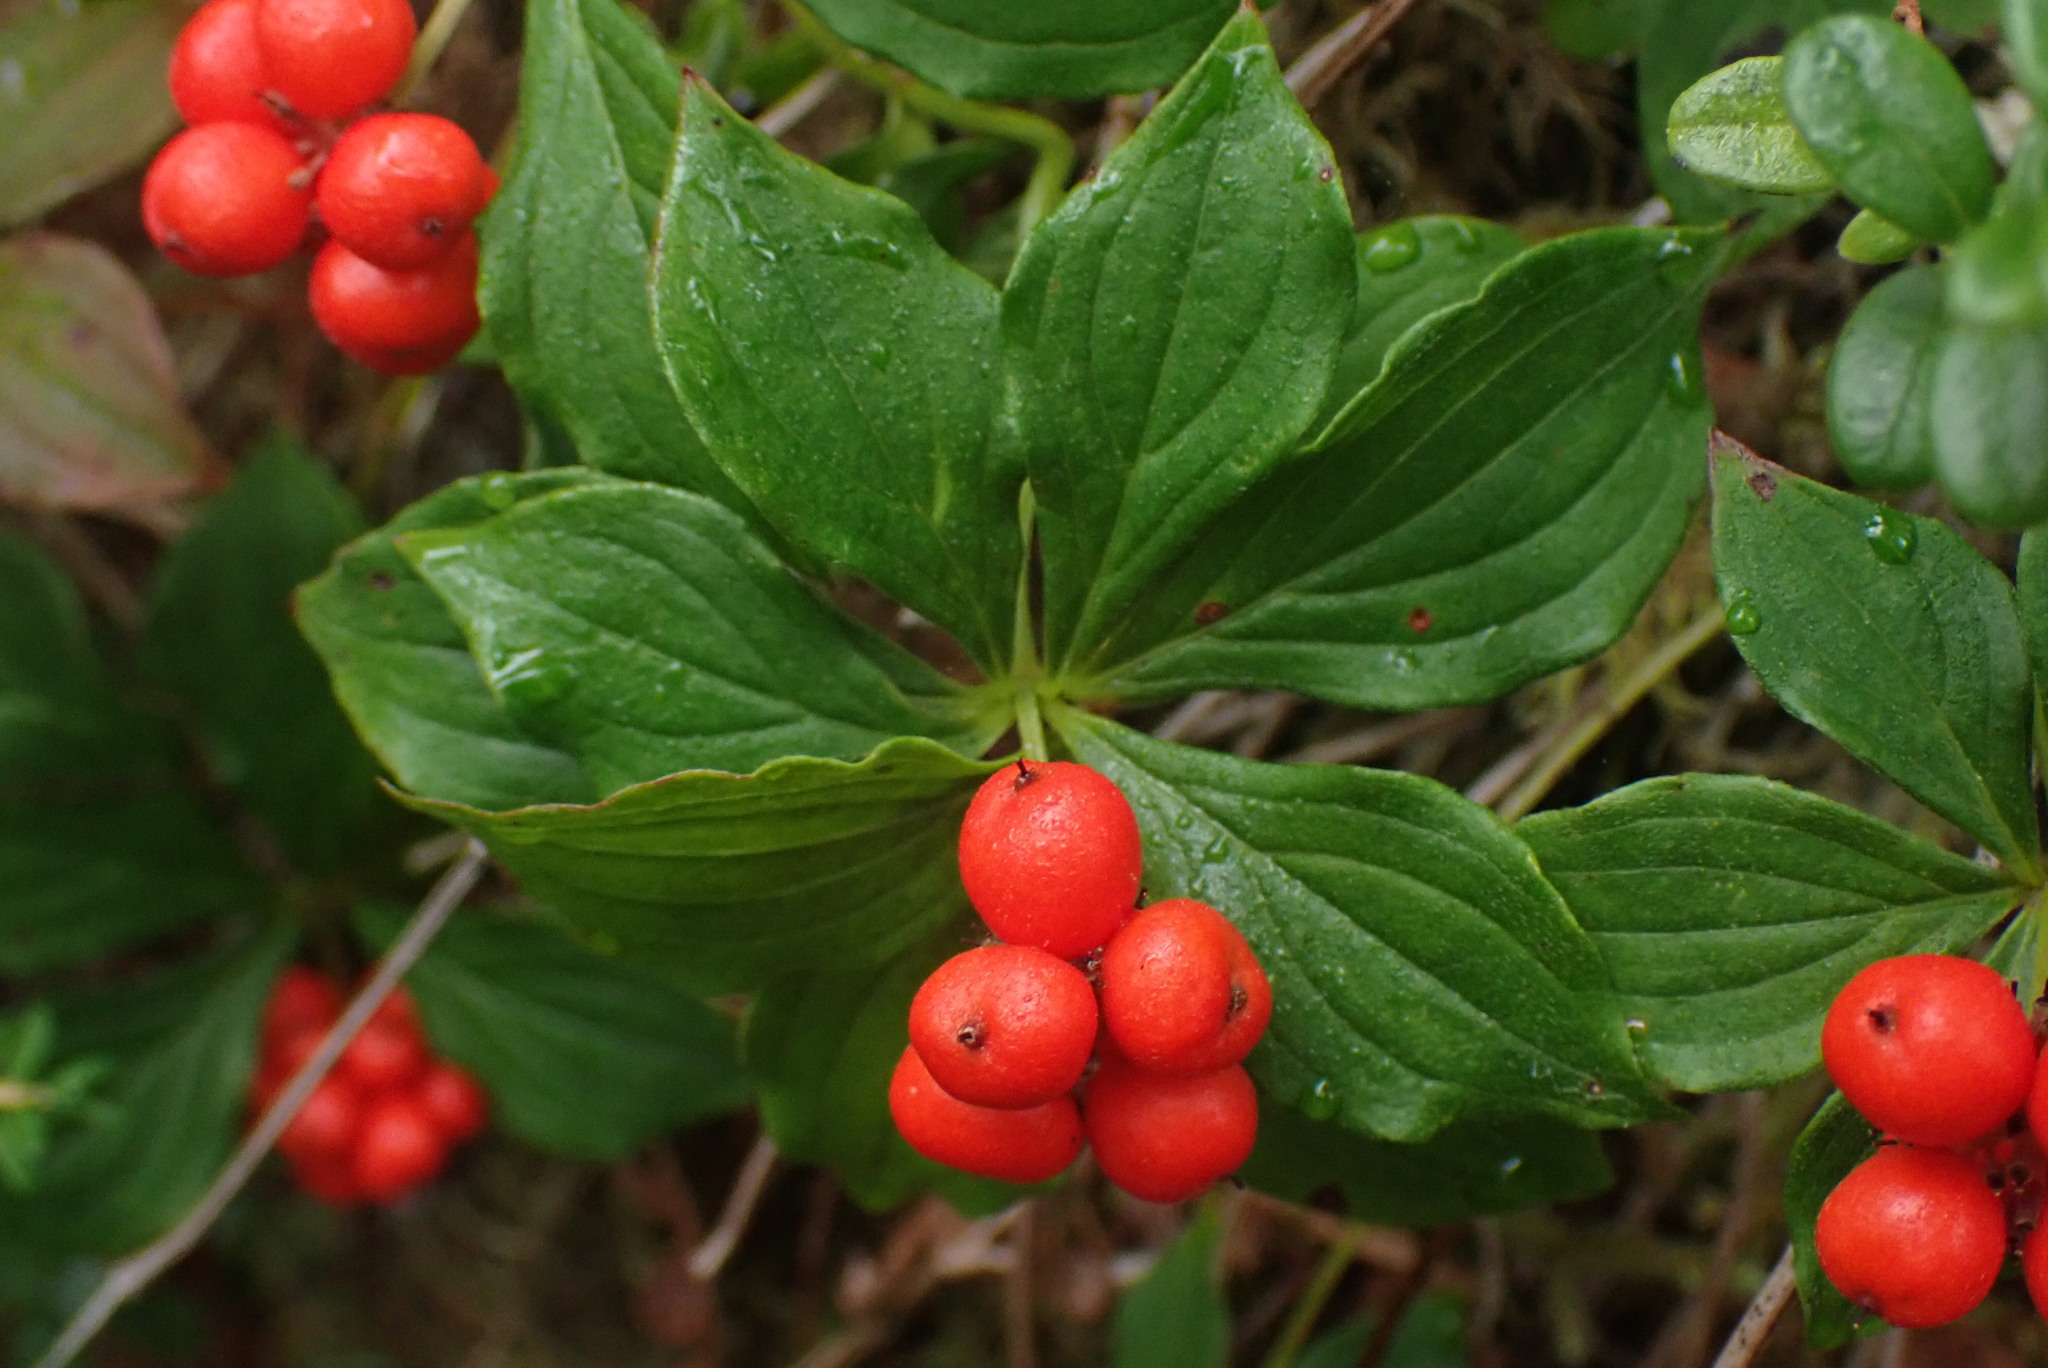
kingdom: Plantae
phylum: Tracheophyta
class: Magnoliopsida
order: Cornales
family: Cornaceae
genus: Cornus
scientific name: Cornus unalaschkensis
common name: Alaska bunchberry
